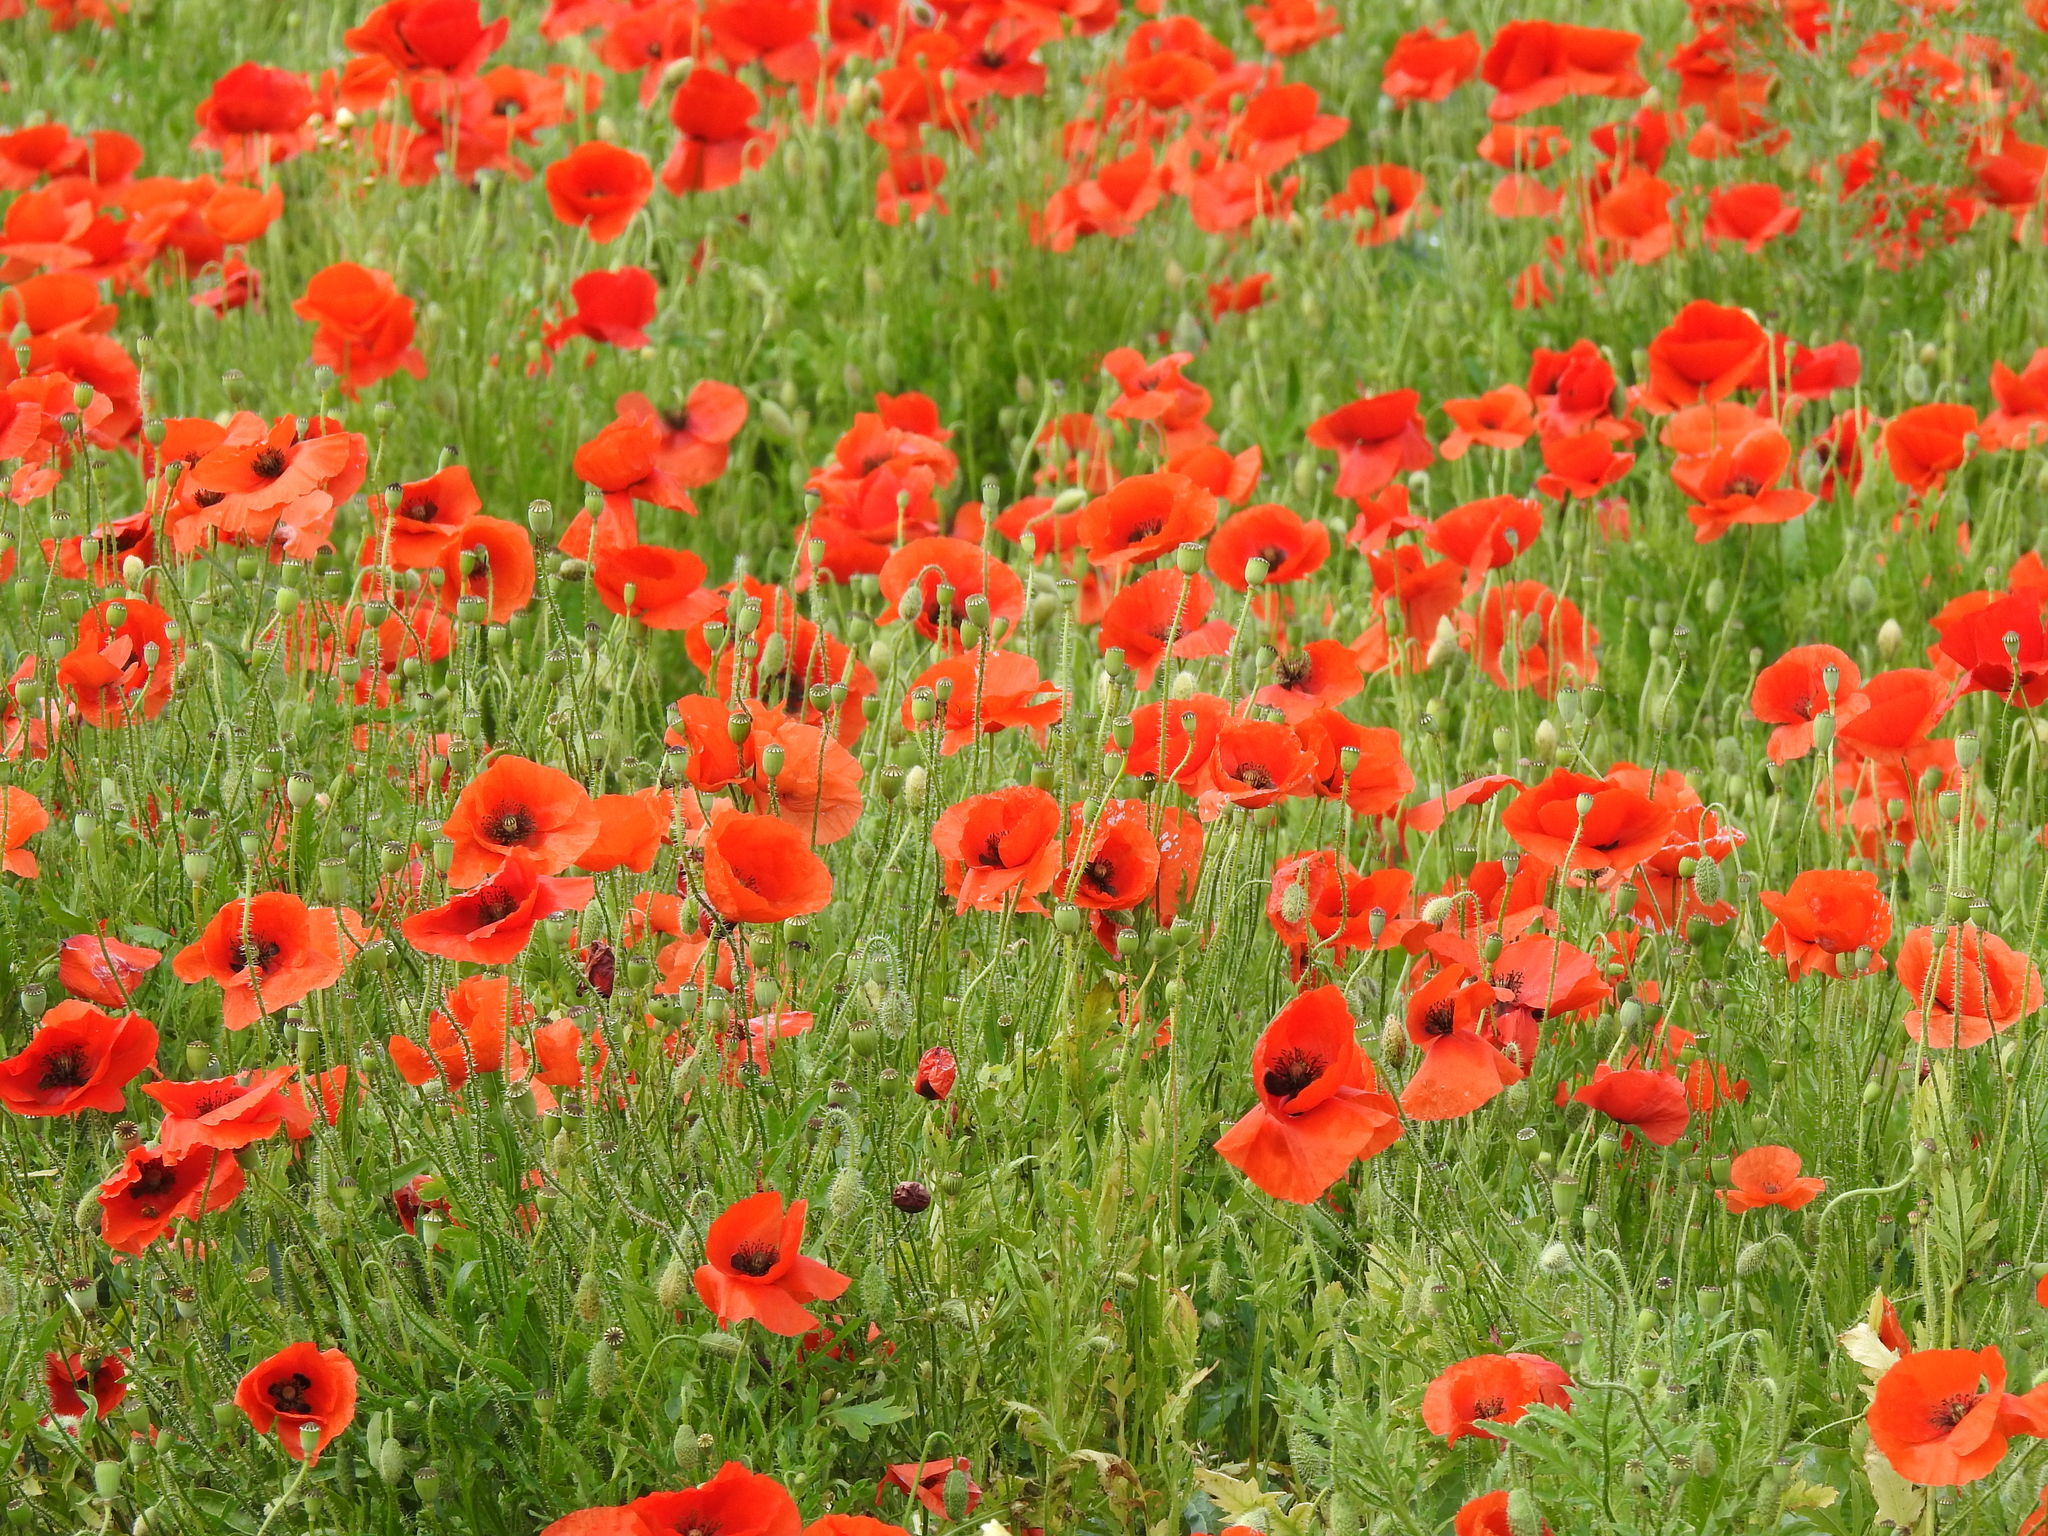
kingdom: Plantae
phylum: Tracheophyta
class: Magnoliopsida
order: Ranunculales
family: Papaveraceae
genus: Papaver
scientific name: Papaver rhoeas
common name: Corn poppy
